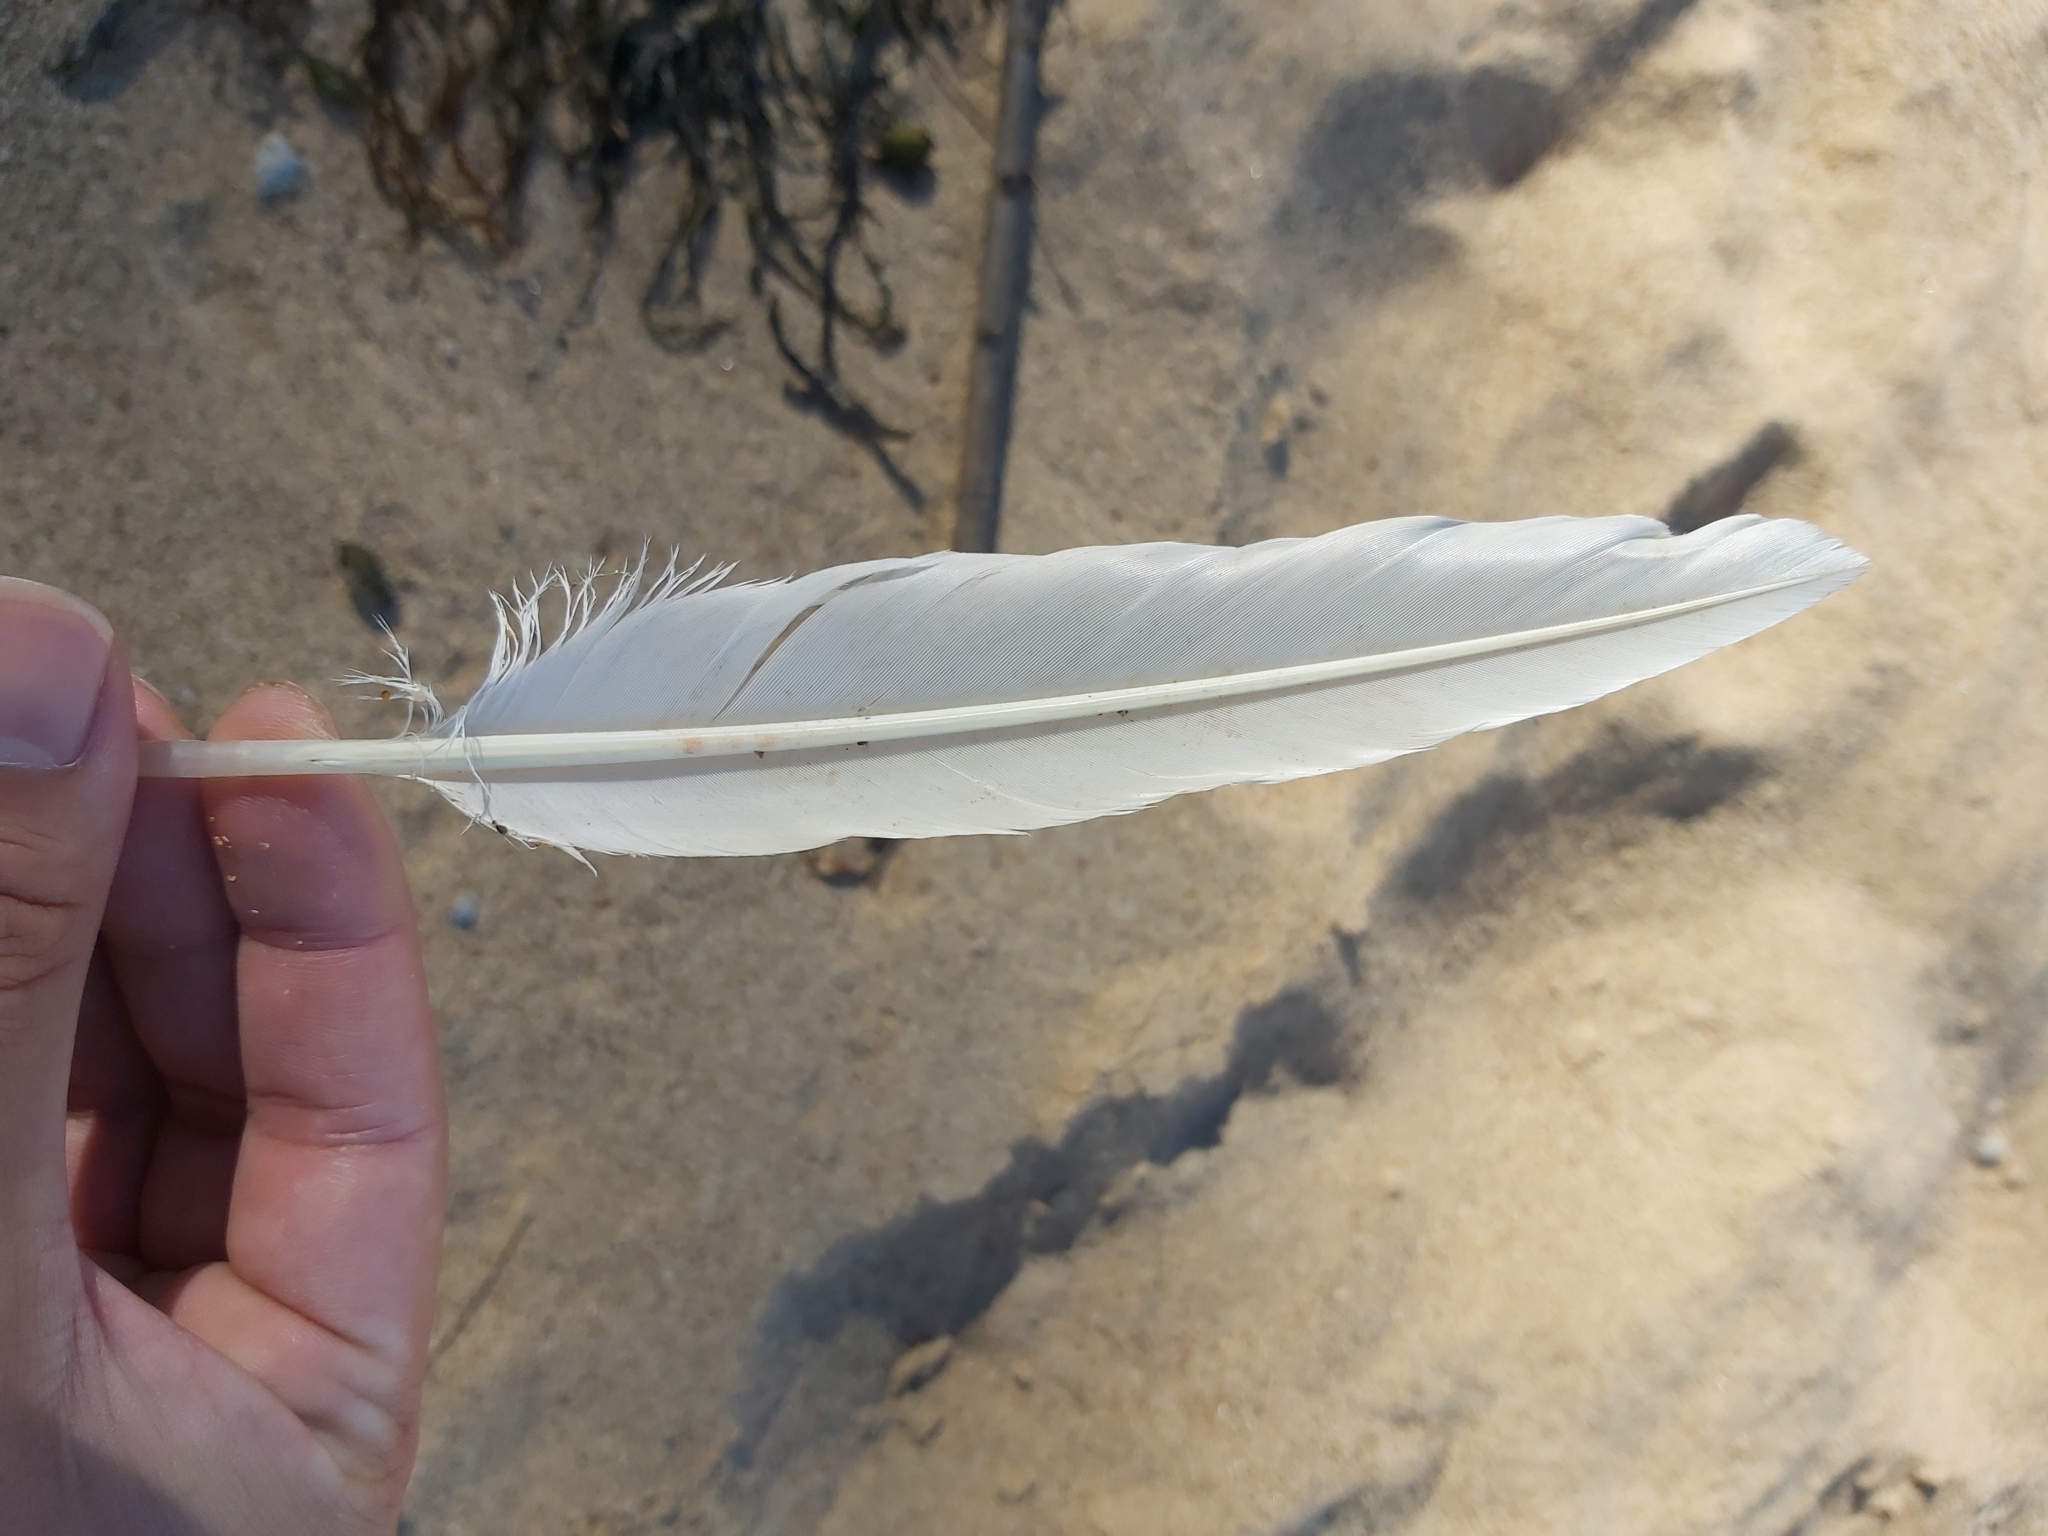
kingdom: Animalia
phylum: Chordata
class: Aves
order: Suliformes
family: Sulidae
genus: Morus
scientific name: Morus serrator
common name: Australasian gannet
